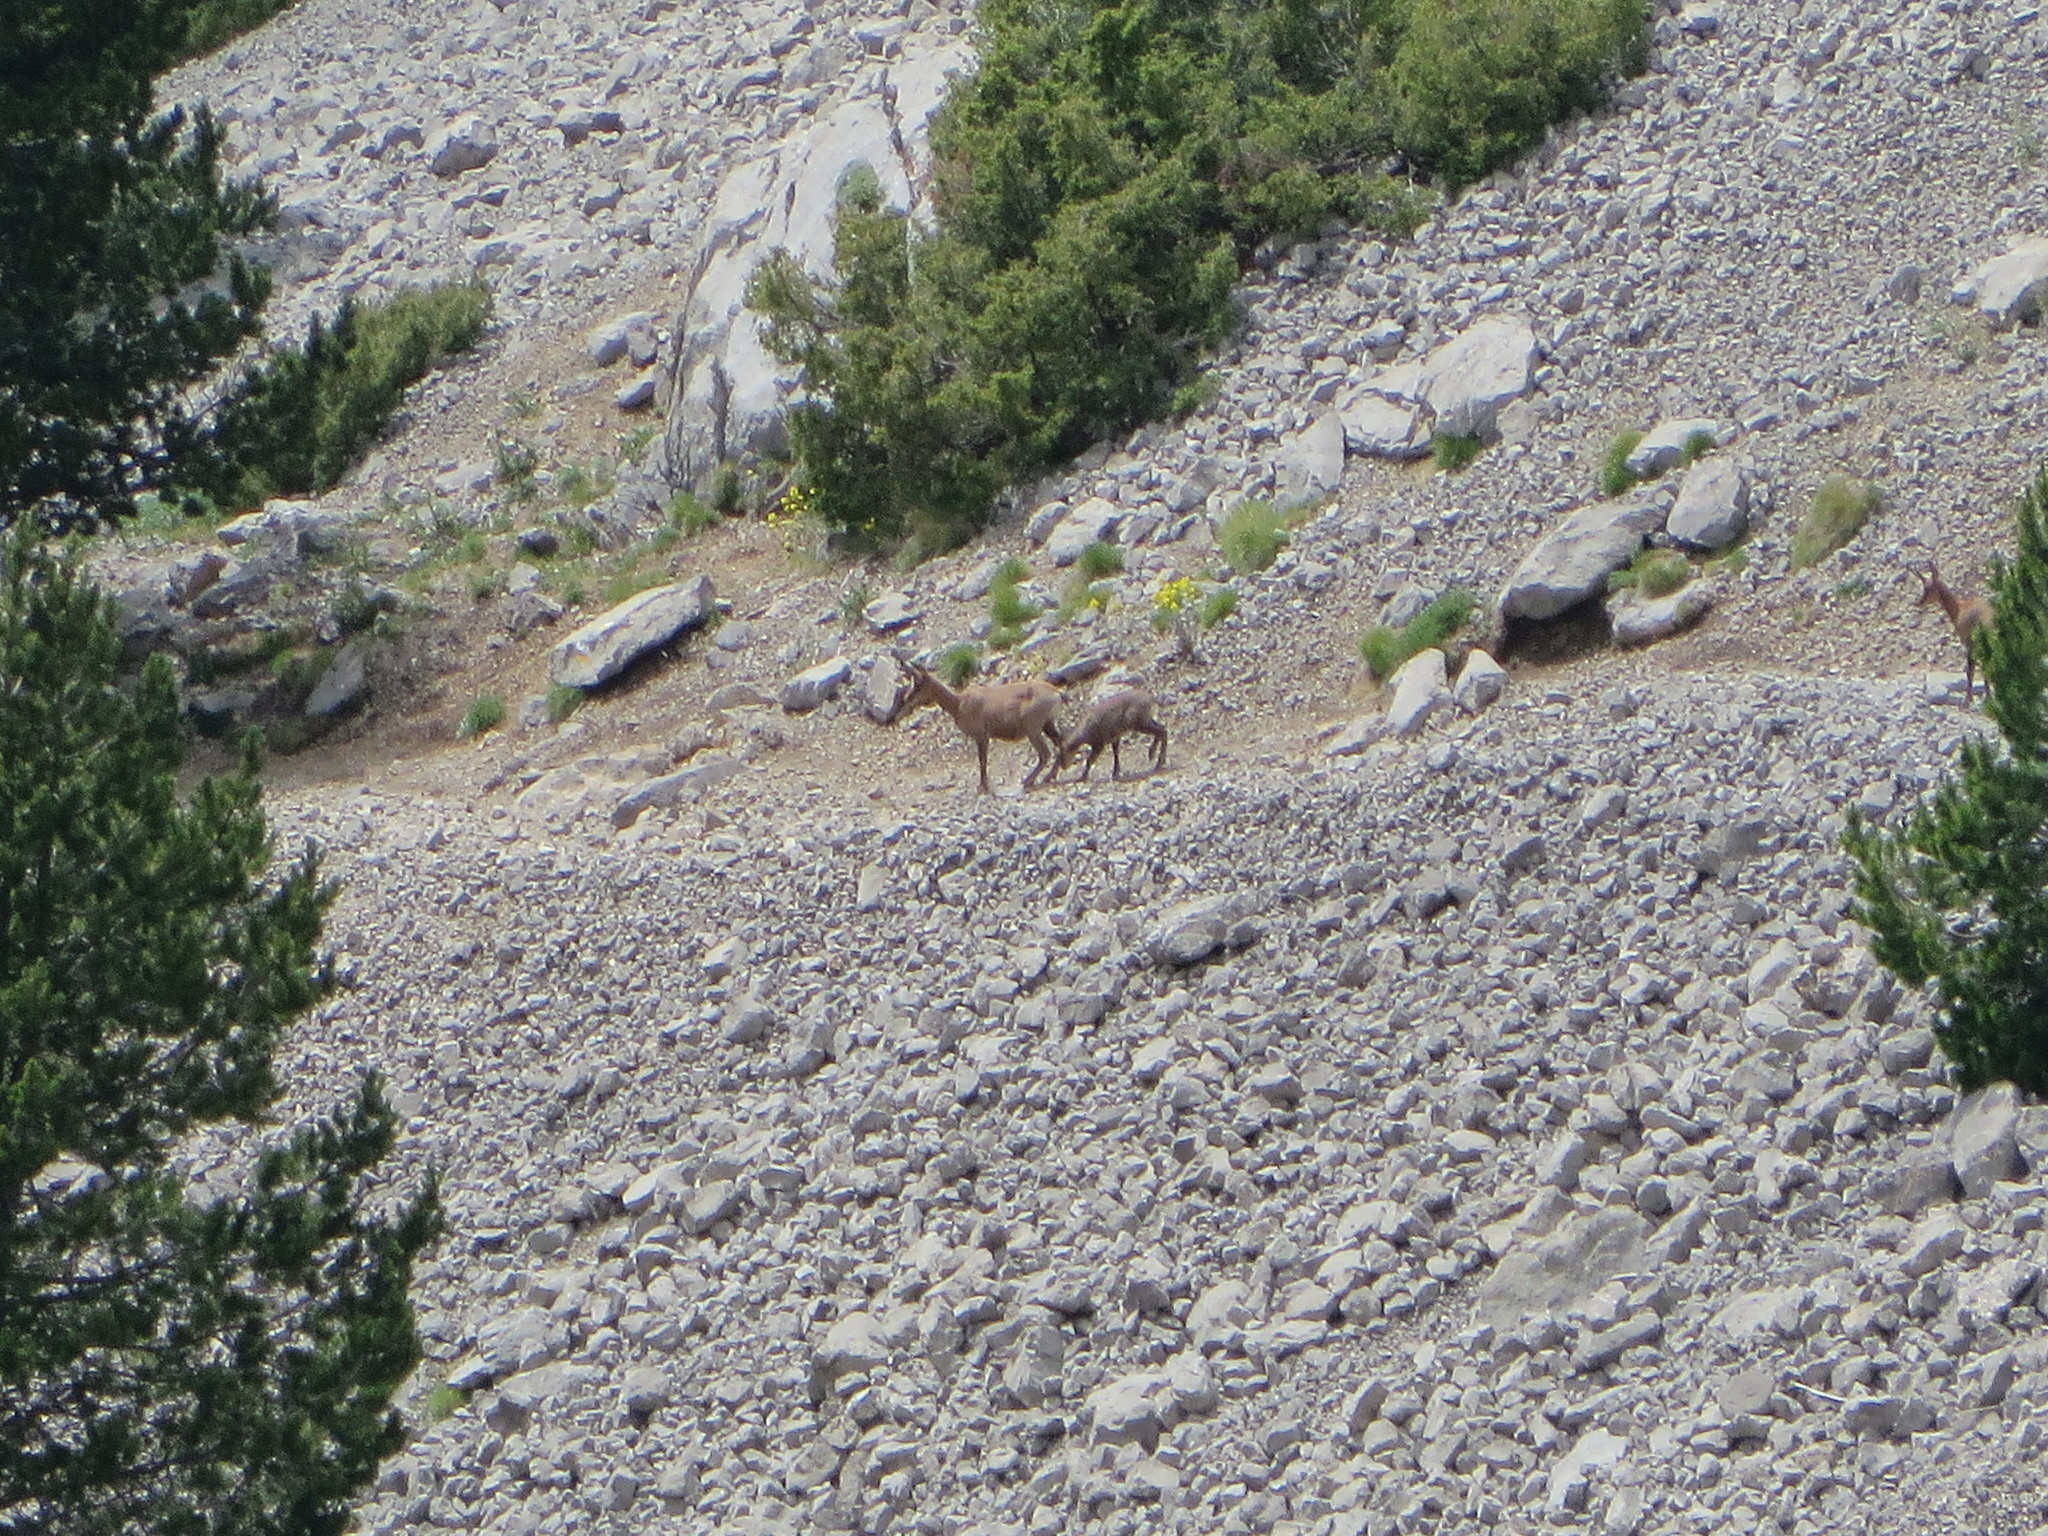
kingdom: Animalia
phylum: Chordata
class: Mammalia
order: Artiodactyla
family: Bovidae
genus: Rupicapra
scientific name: Rupicapra pyrenaica
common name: Pyrenean chamois
